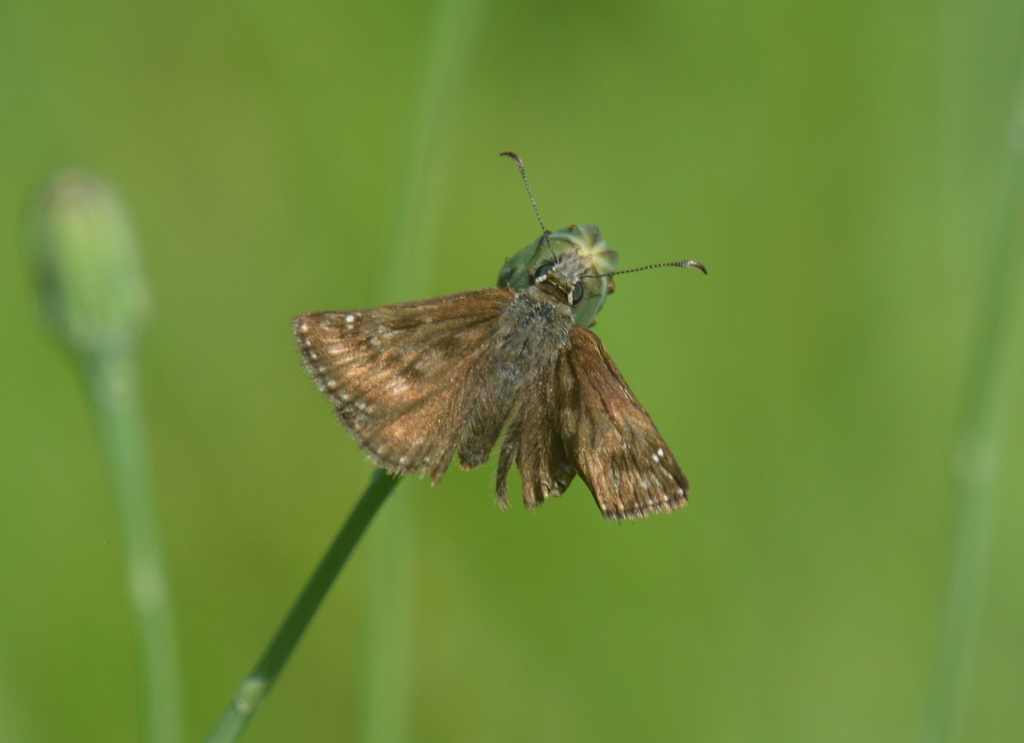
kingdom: Animalia
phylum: Arthropoda
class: Insecta
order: Lepidoptera
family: Hesperiidae
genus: Erynnis
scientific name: Erynnis tages
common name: Dingy skipper
